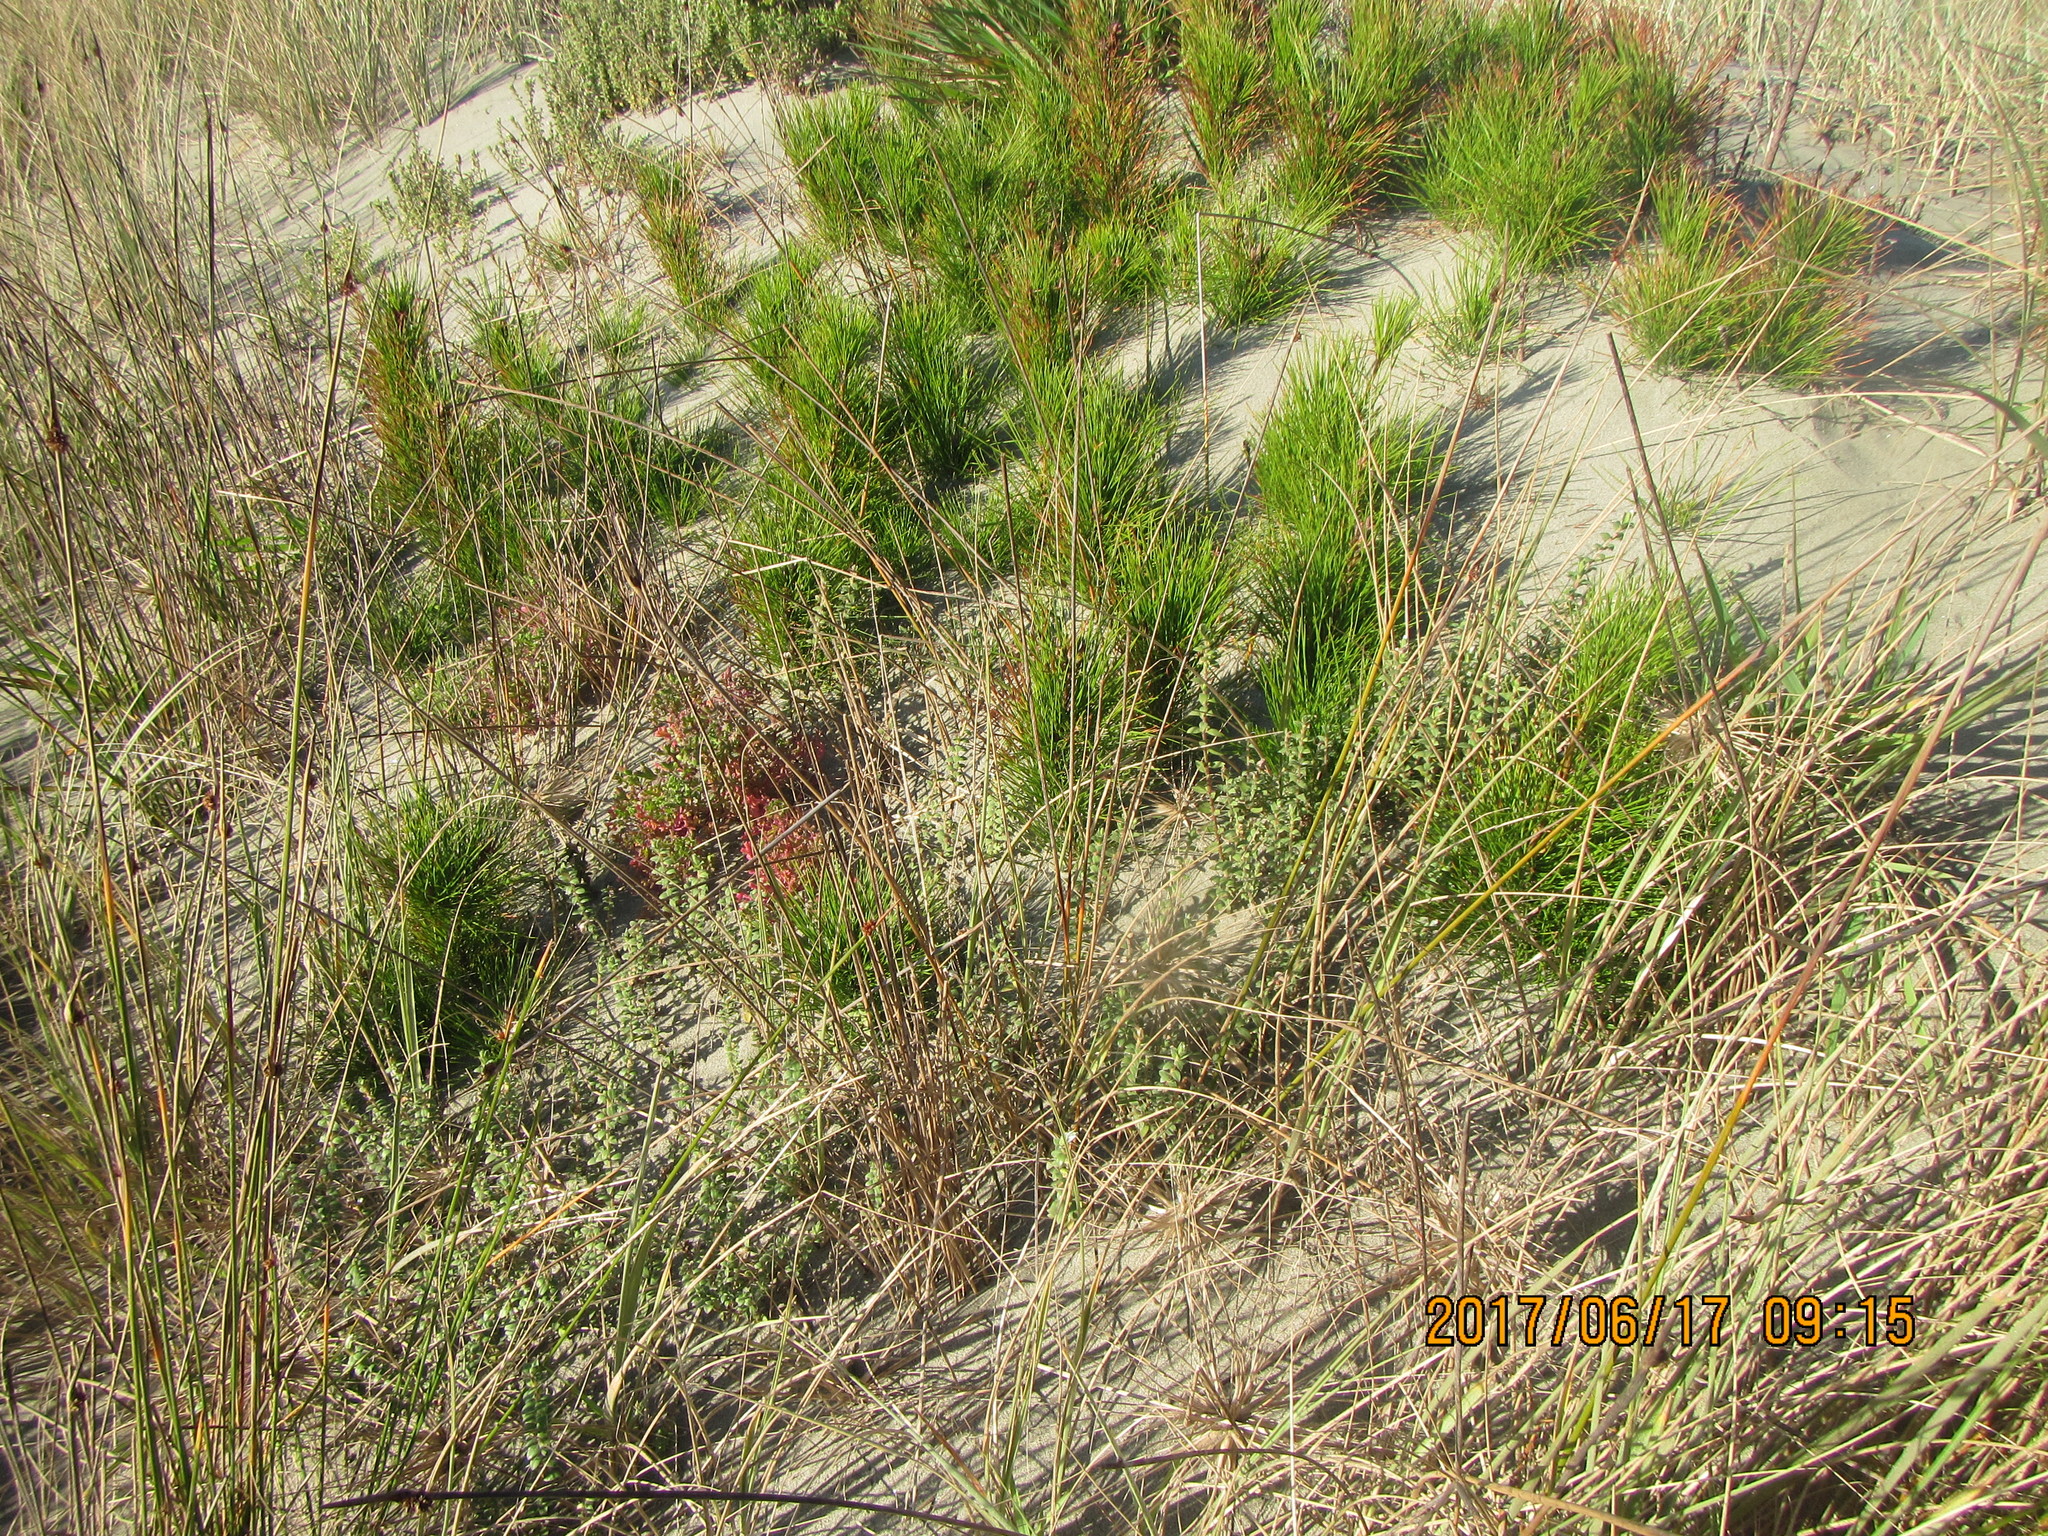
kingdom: Plantae
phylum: Tracheophyta
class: Magnoliopsida
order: Malvales
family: Thymelaeaceae
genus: Pimelea
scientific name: Pimelea villosa
